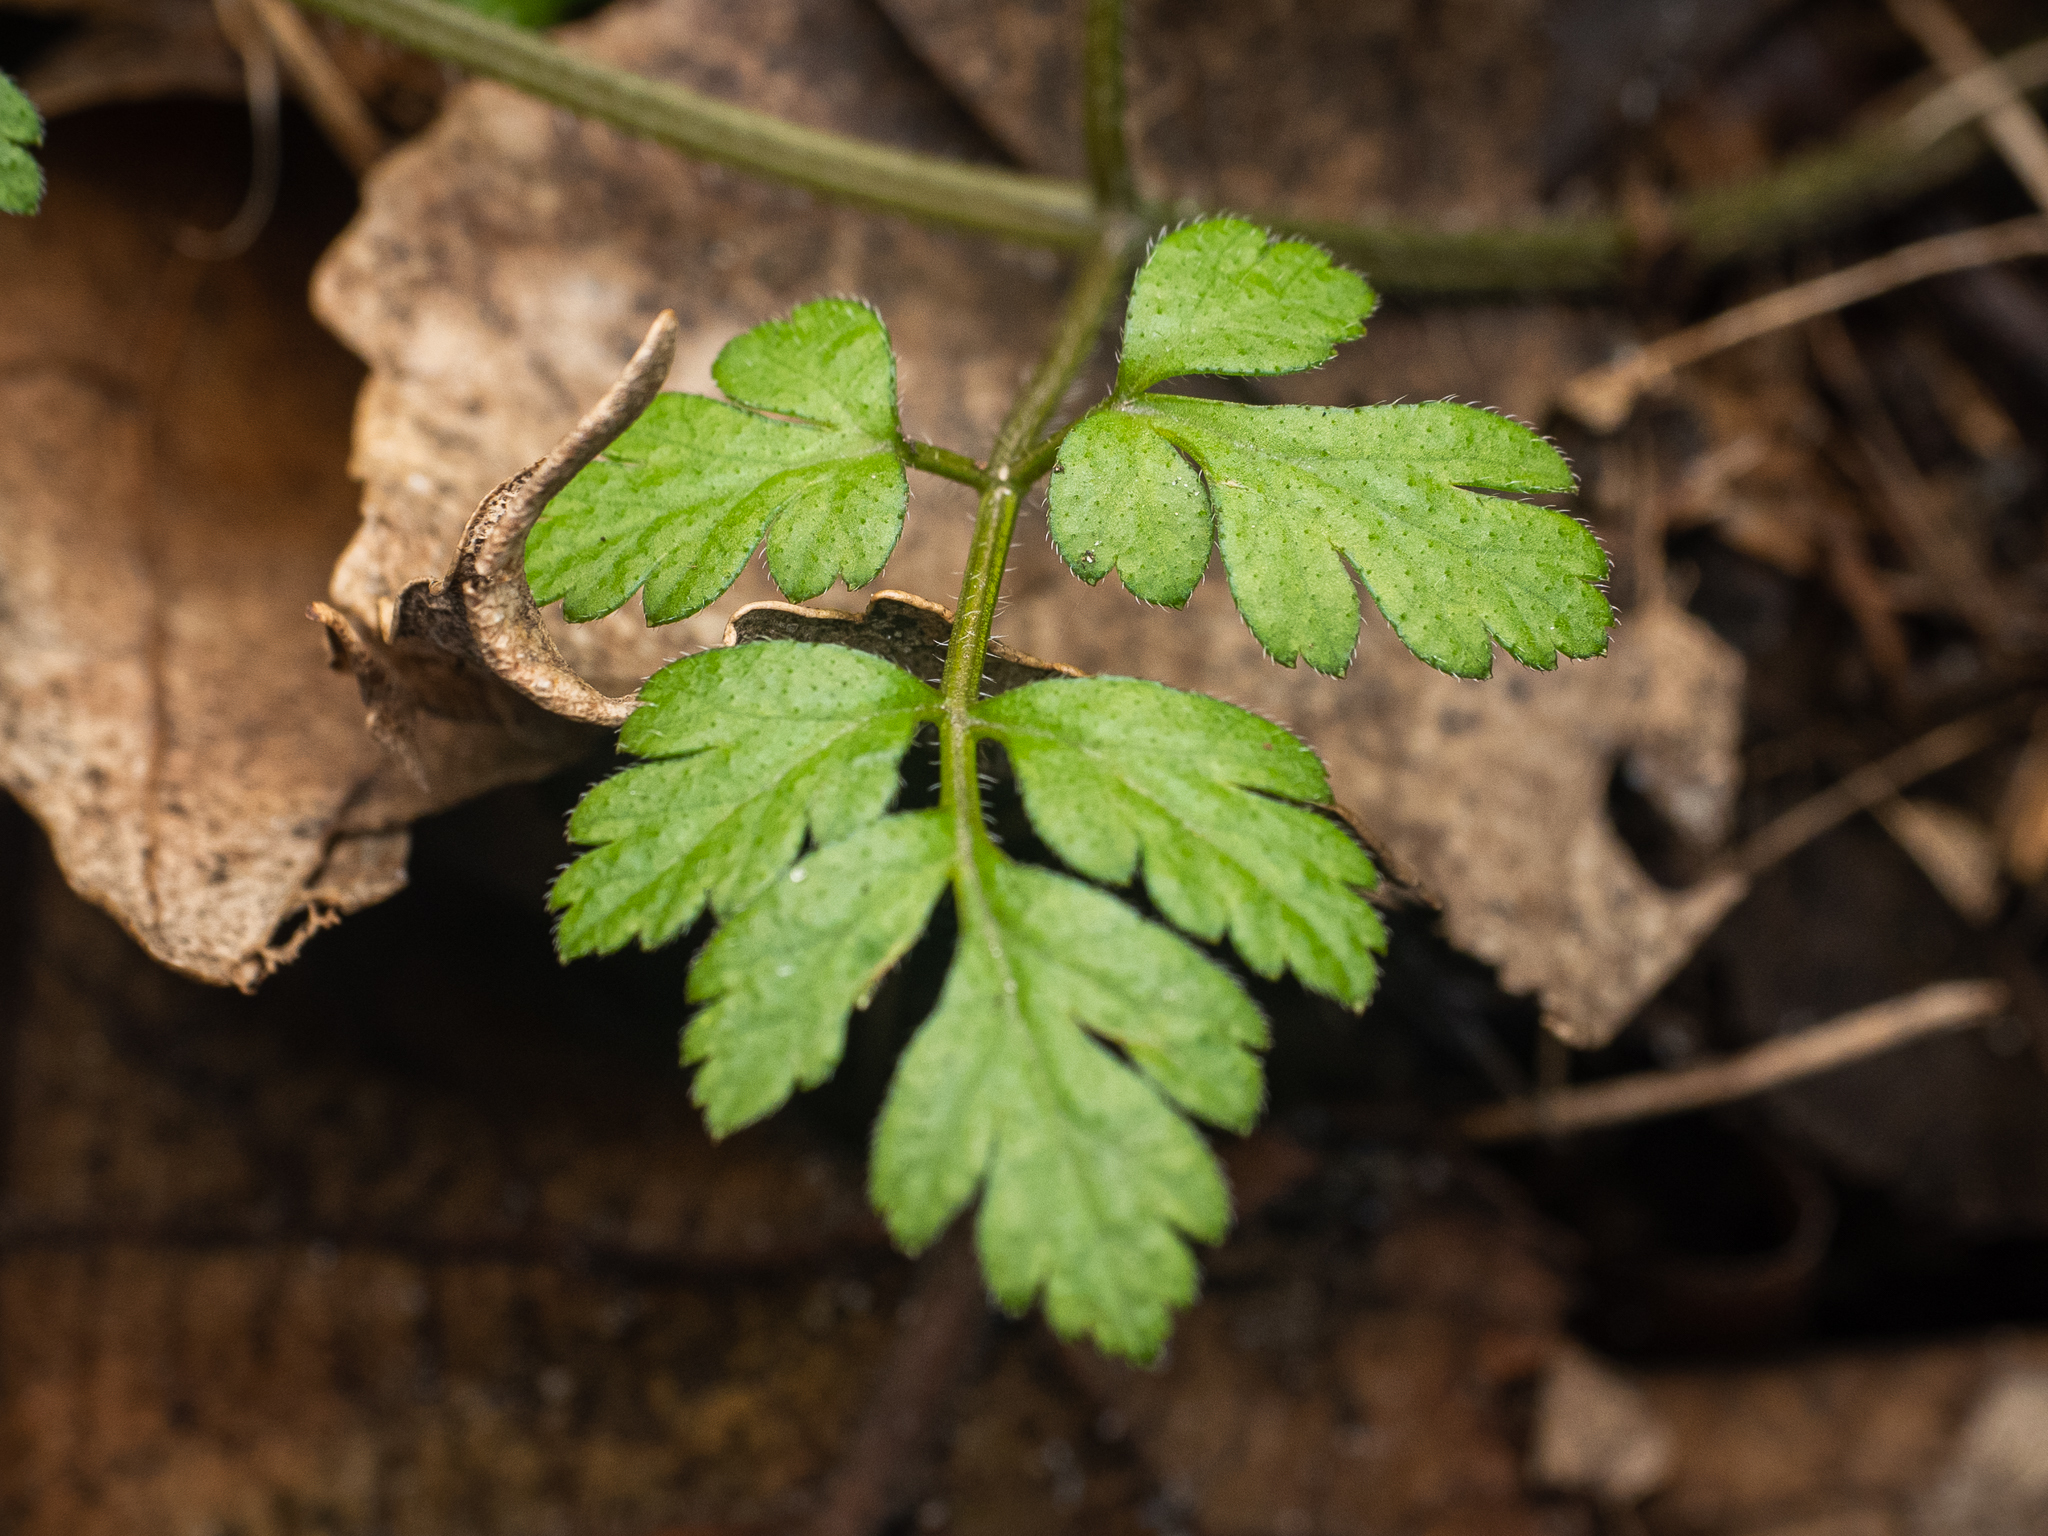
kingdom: Plantae
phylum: Tracheophyta
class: Magnoliopsida
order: Apiales
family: Apiaceae
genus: Chaerophyllum
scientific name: Chaerophyllum temulum
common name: Rough chervil
